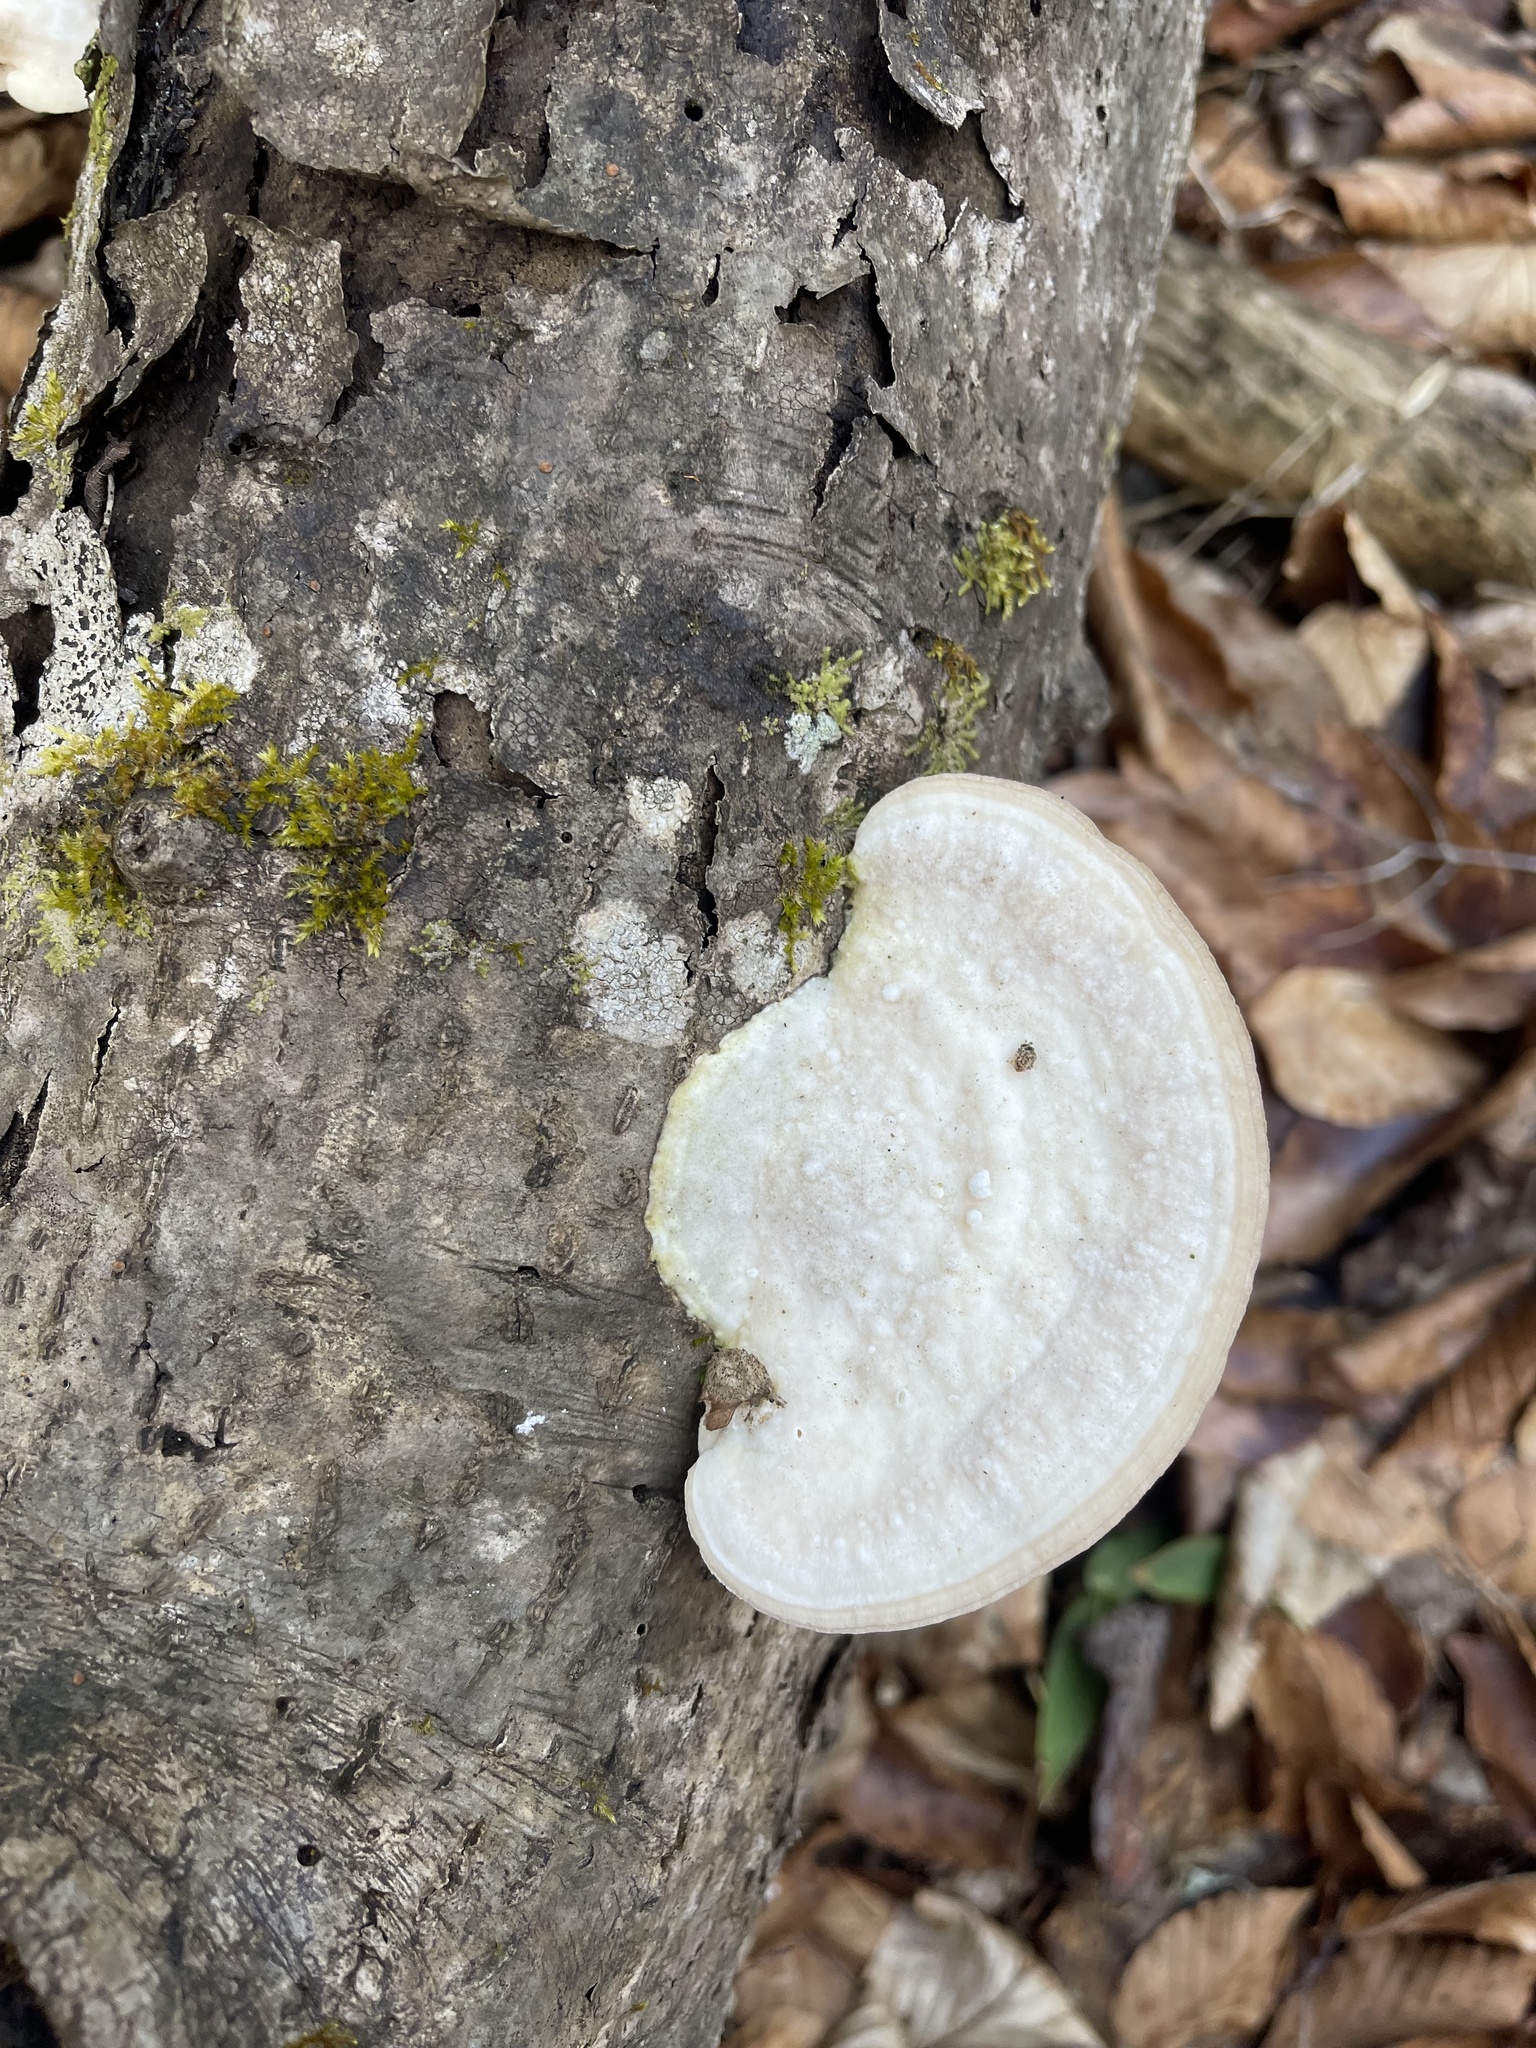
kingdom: Fungi
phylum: Basidiomycota
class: Agaricomycetes
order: Polyporales
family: Polyporaceae
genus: Trametes
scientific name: Trametes gibbosa
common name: Lumpy bracket
